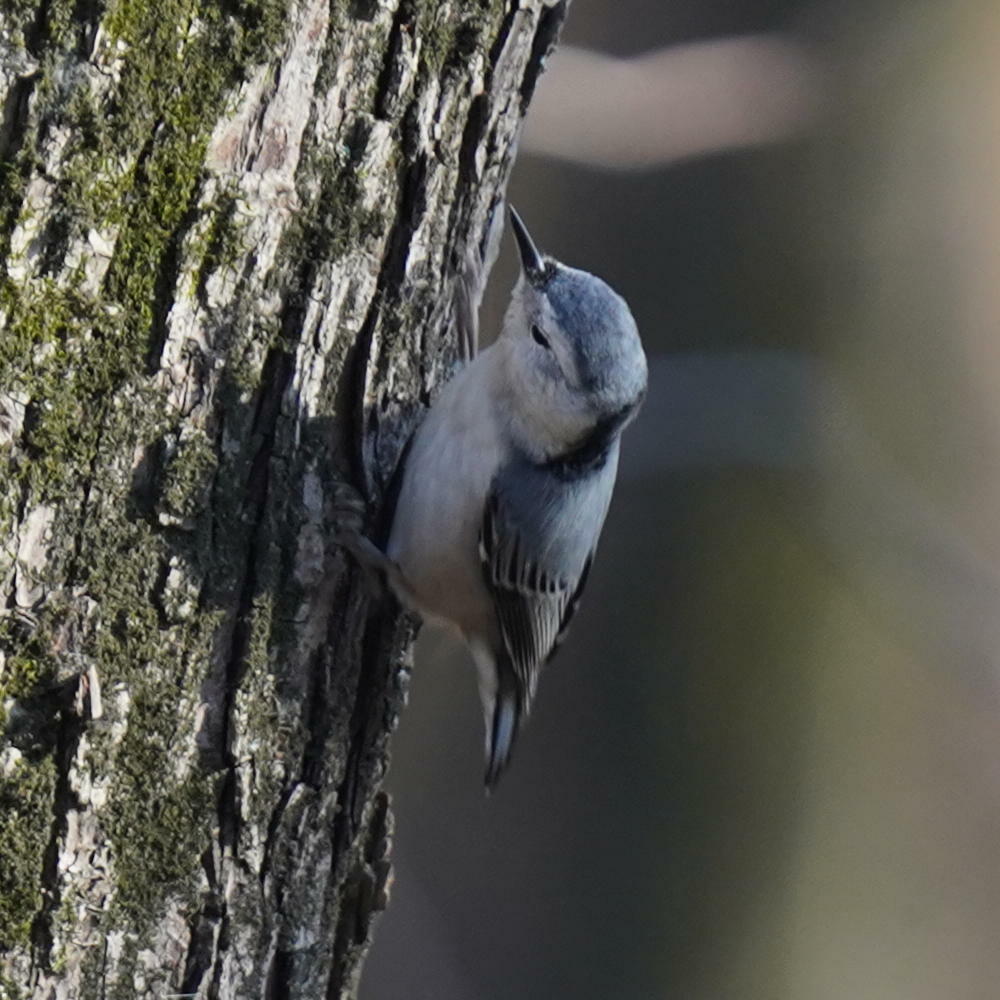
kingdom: Animalia
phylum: Chordata
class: Aves
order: Passeriformes
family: Sittidae
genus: Sitta
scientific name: Sitta carolinensis
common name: White-breasted nuthatch
